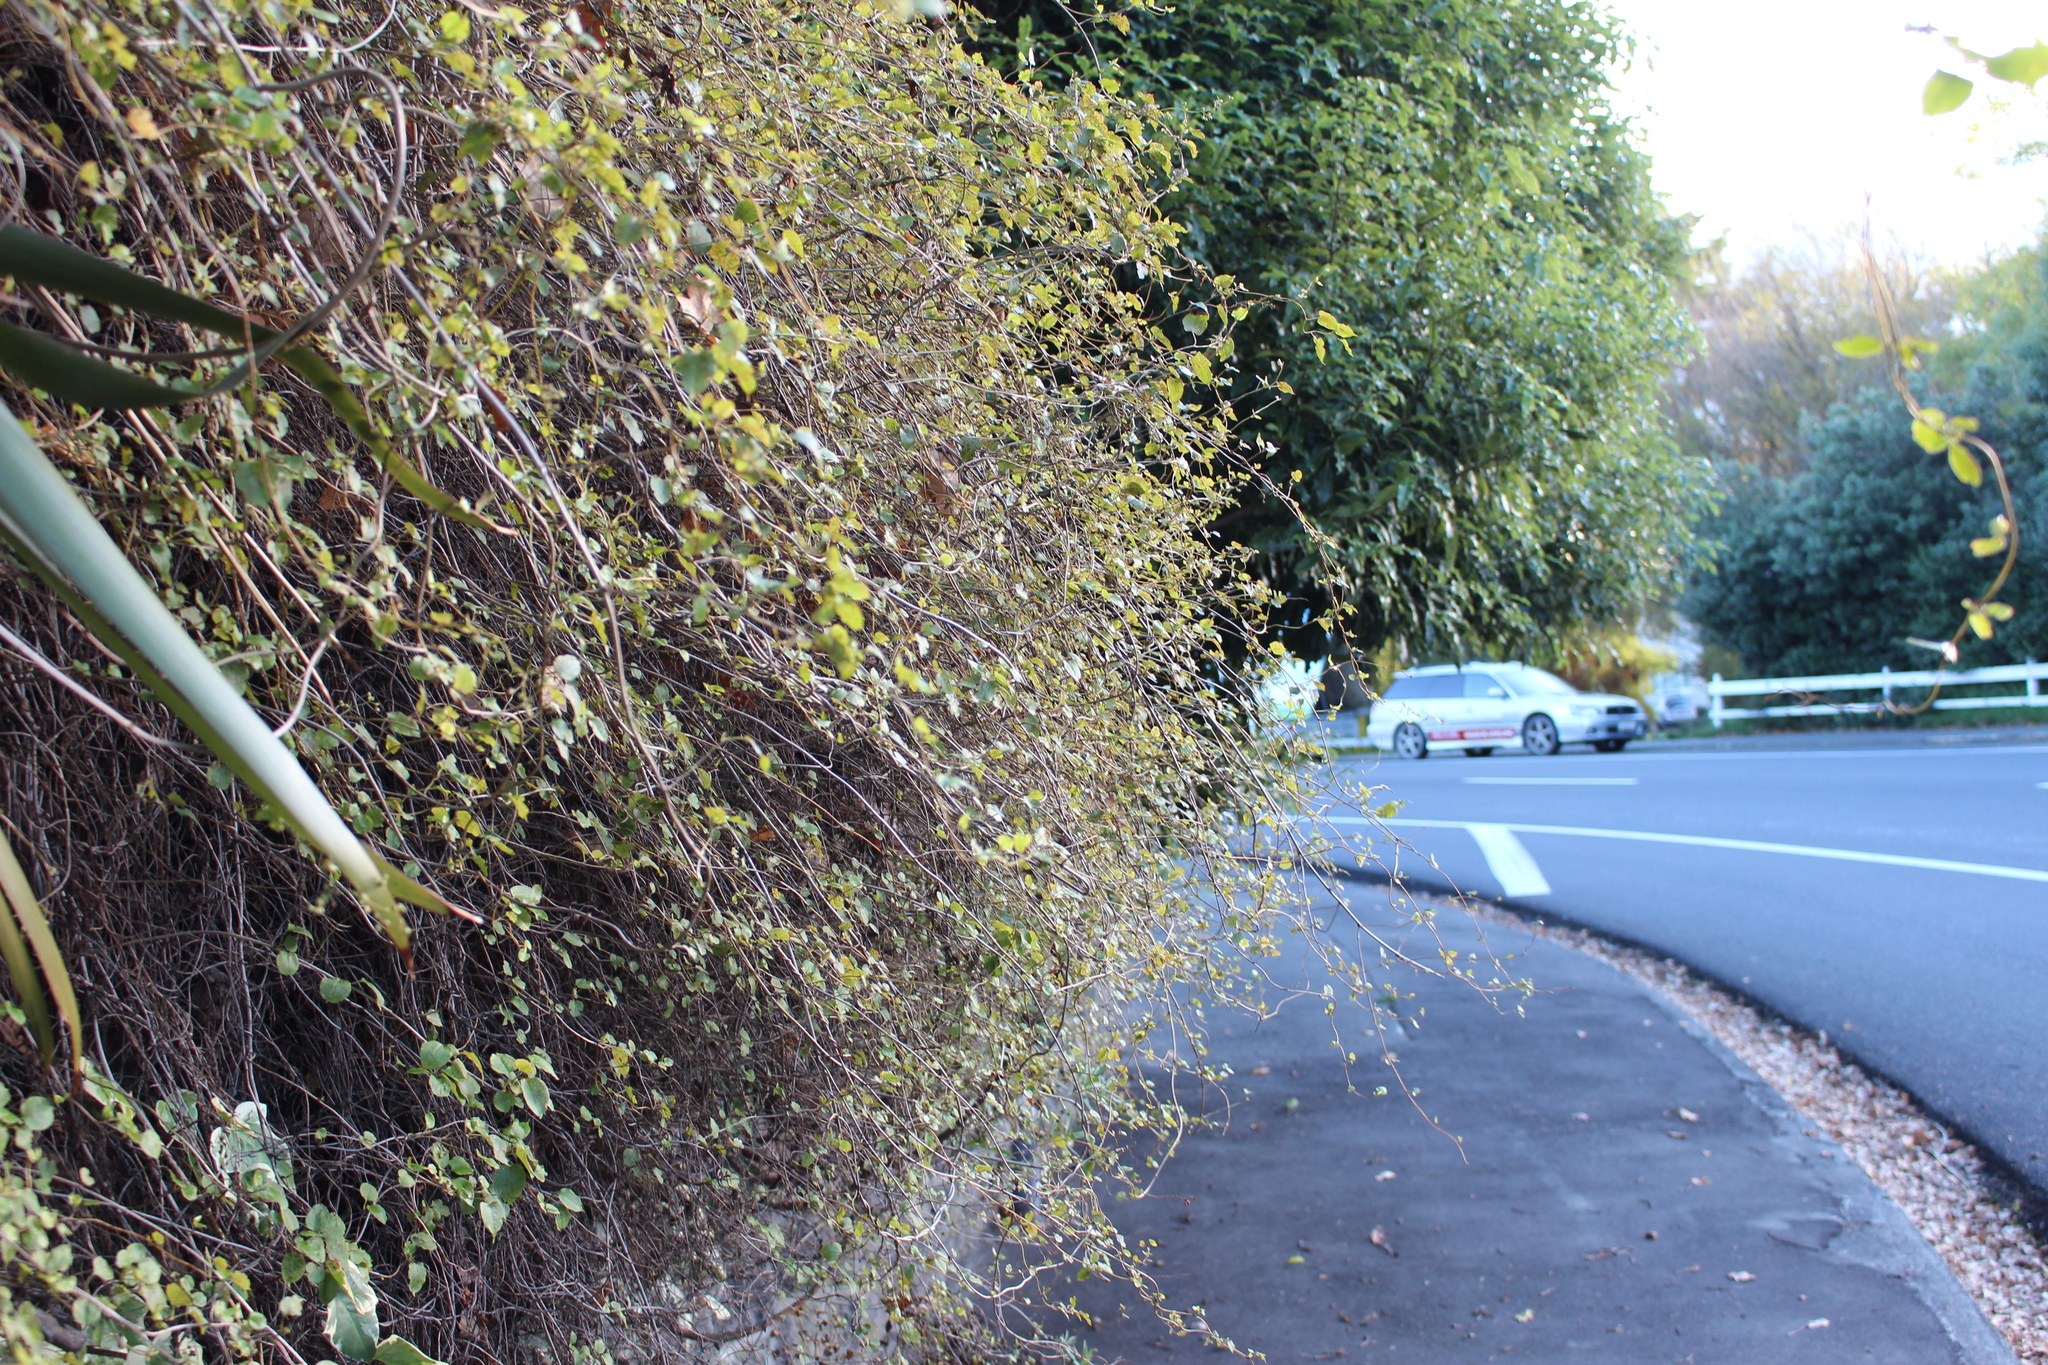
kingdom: Plantae
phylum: Tracheophyta
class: Magnoliopsida
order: Caryophyllales
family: Polygonaceae
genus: Muehlenbeckia
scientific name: Muehlenbeckia australis
